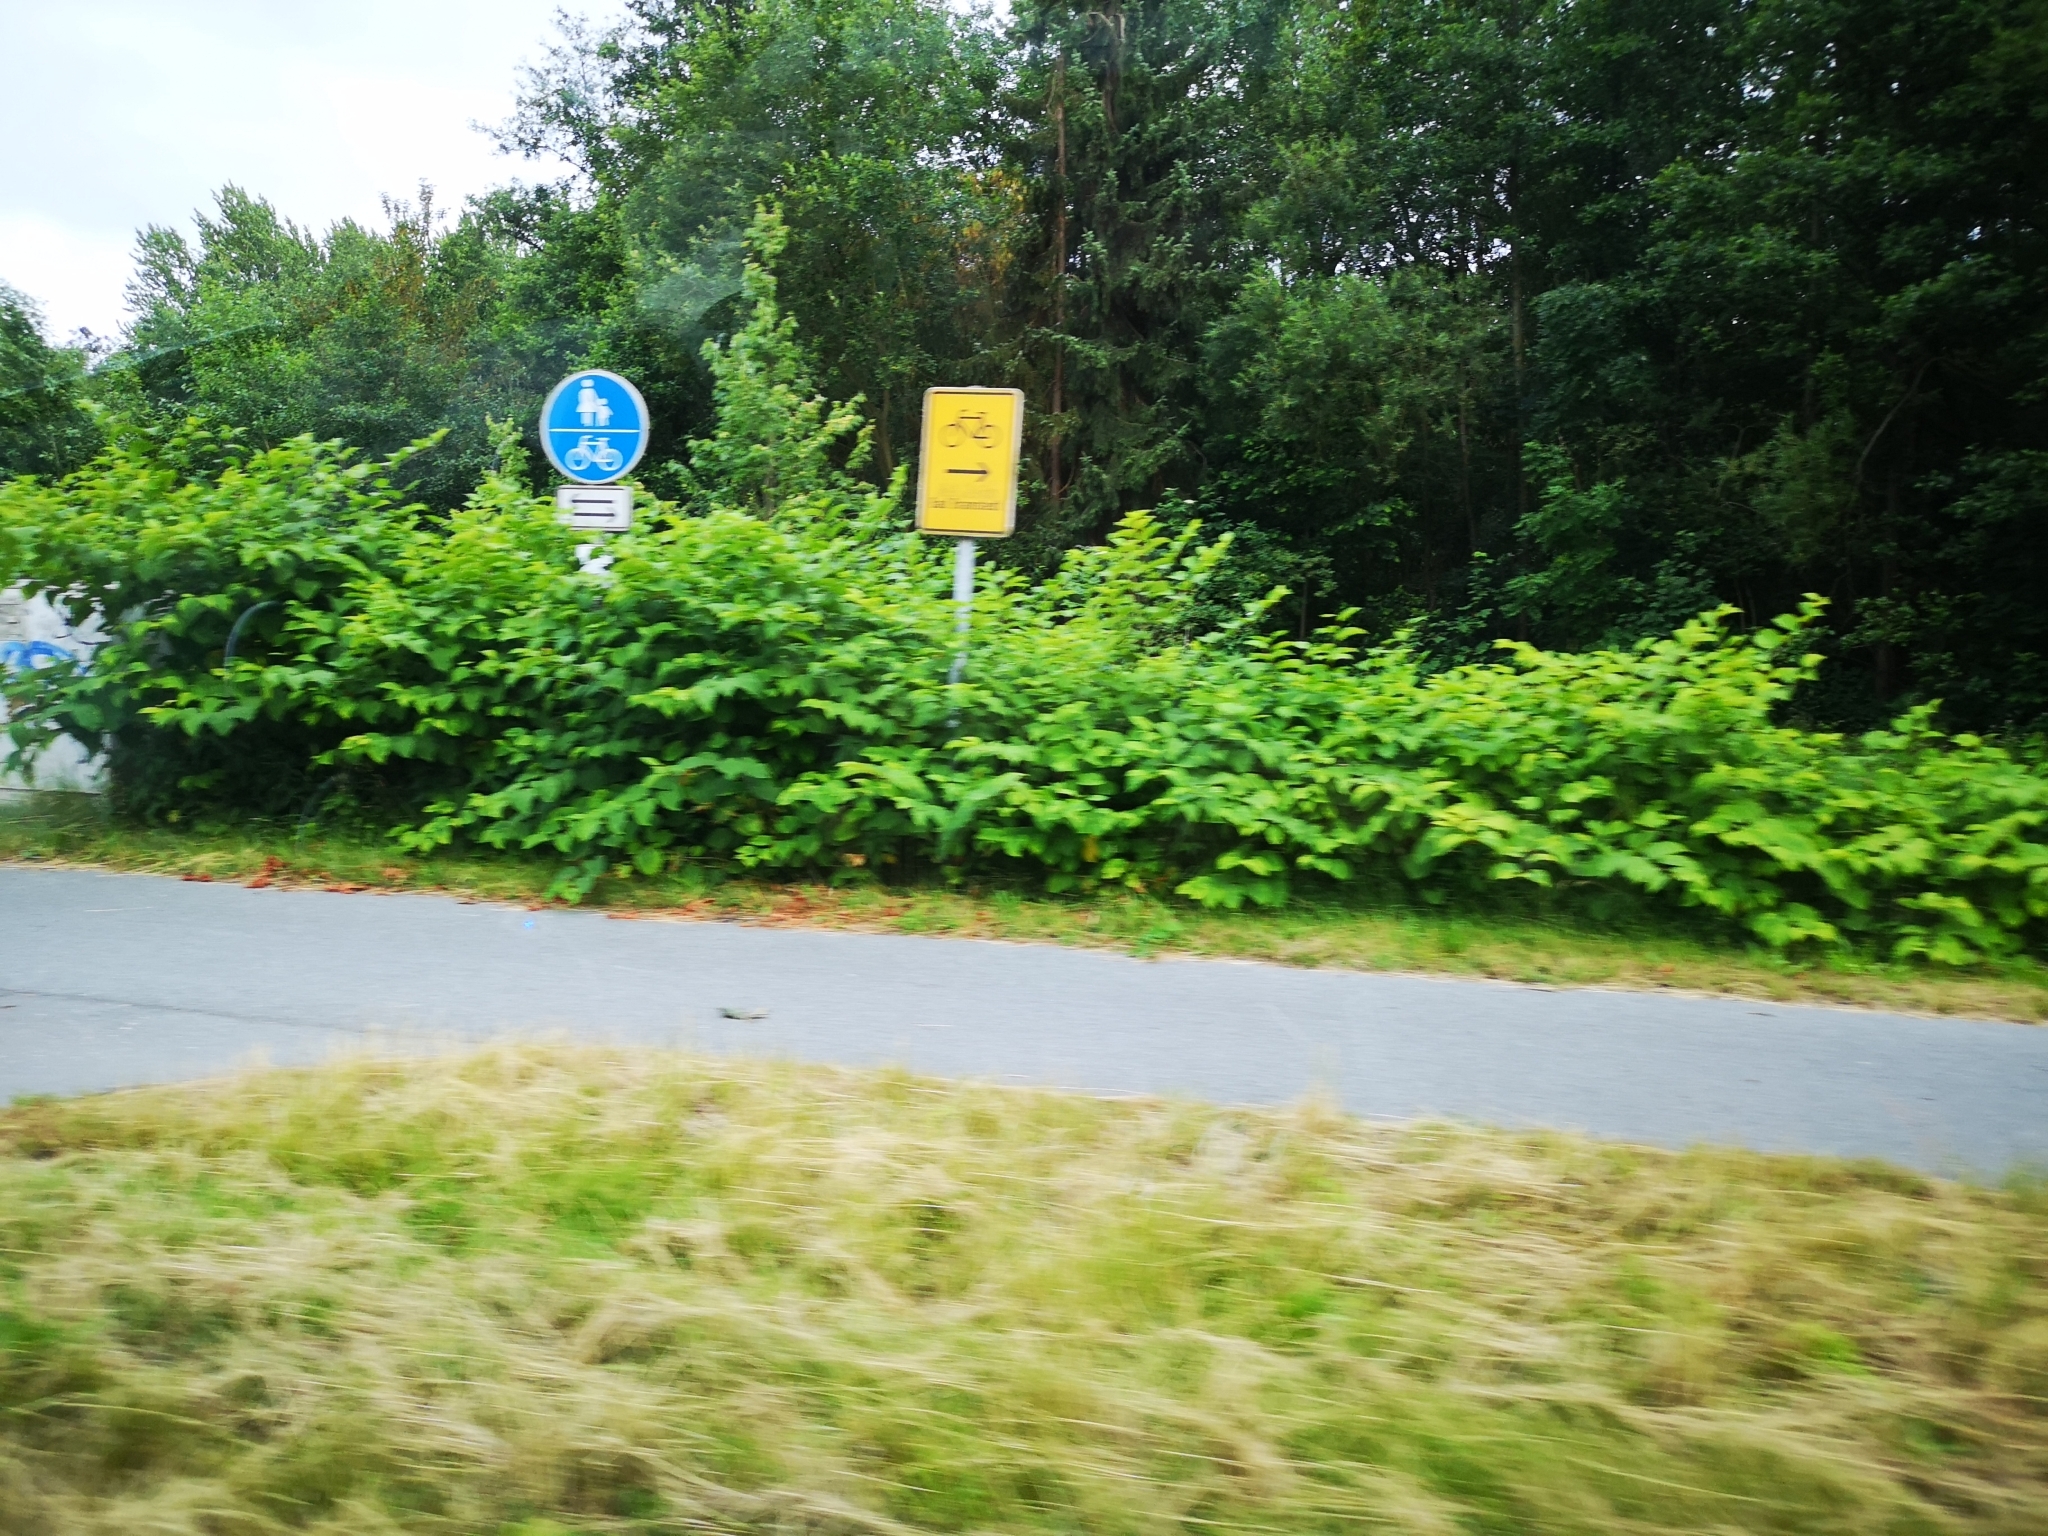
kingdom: Plantae
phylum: Tracheophyta
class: Magnoliopsida
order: Caryophyllales
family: Polygonaceae
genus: Reynoutria
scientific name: Reynoutria japonica
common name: Japanese knotweed
